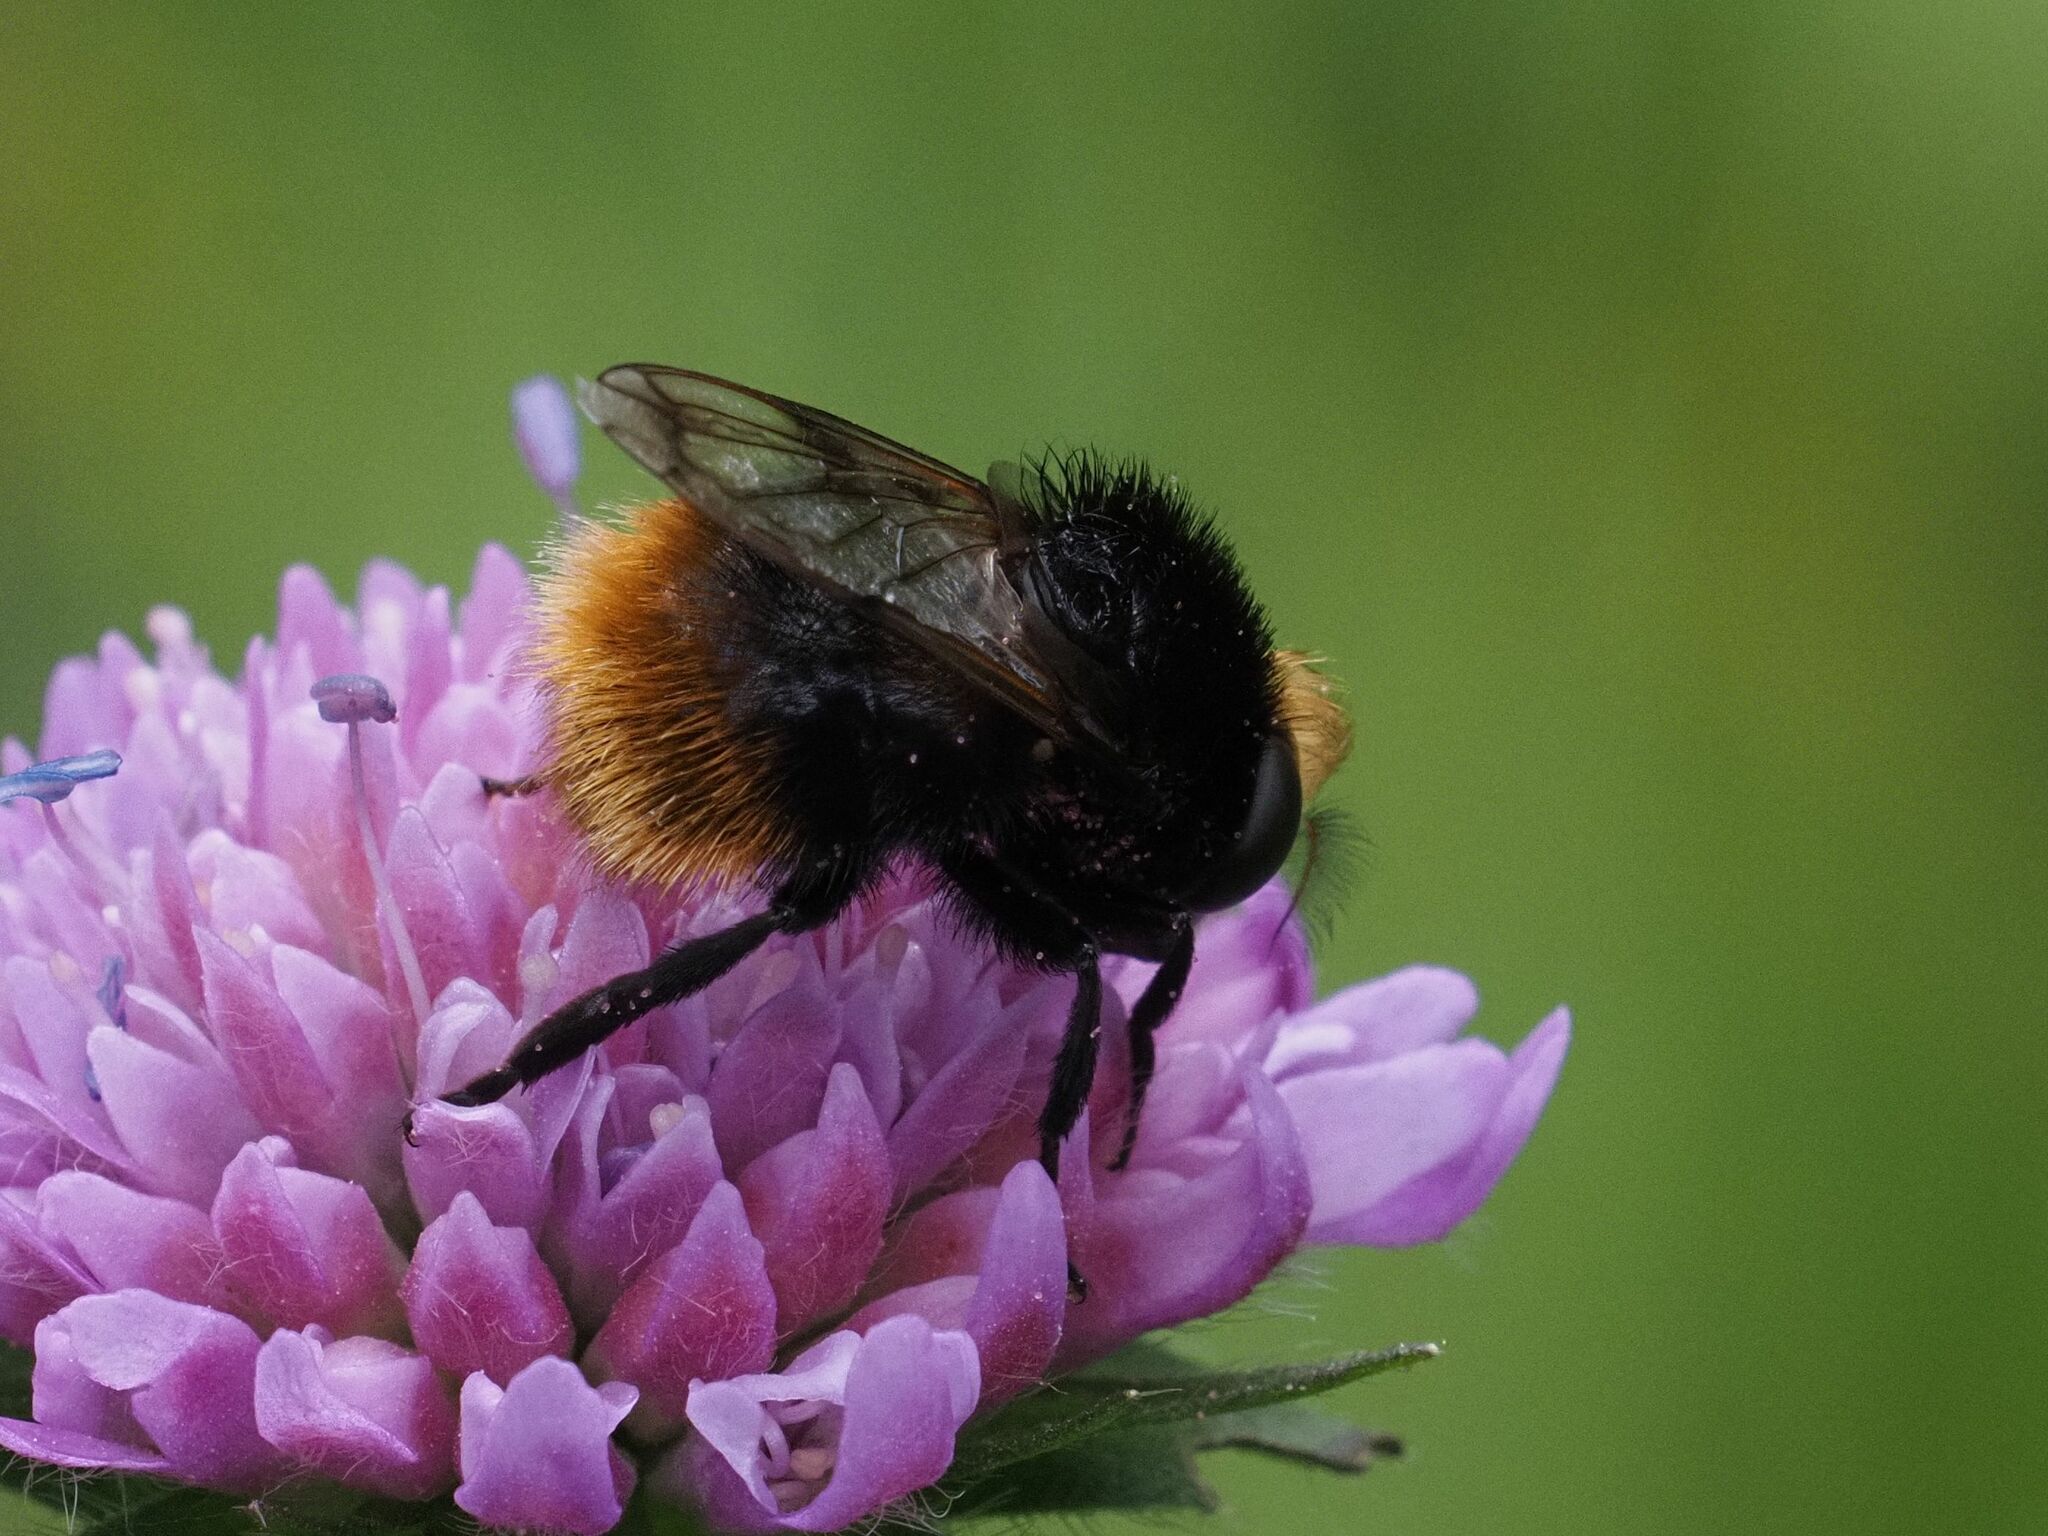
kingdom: Animalia
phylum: Arthropoda
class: Insecta
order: Diptera
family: Syrphidae
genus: Volucella
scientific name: Volucella bombylans
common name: Bumble bee hover fly
